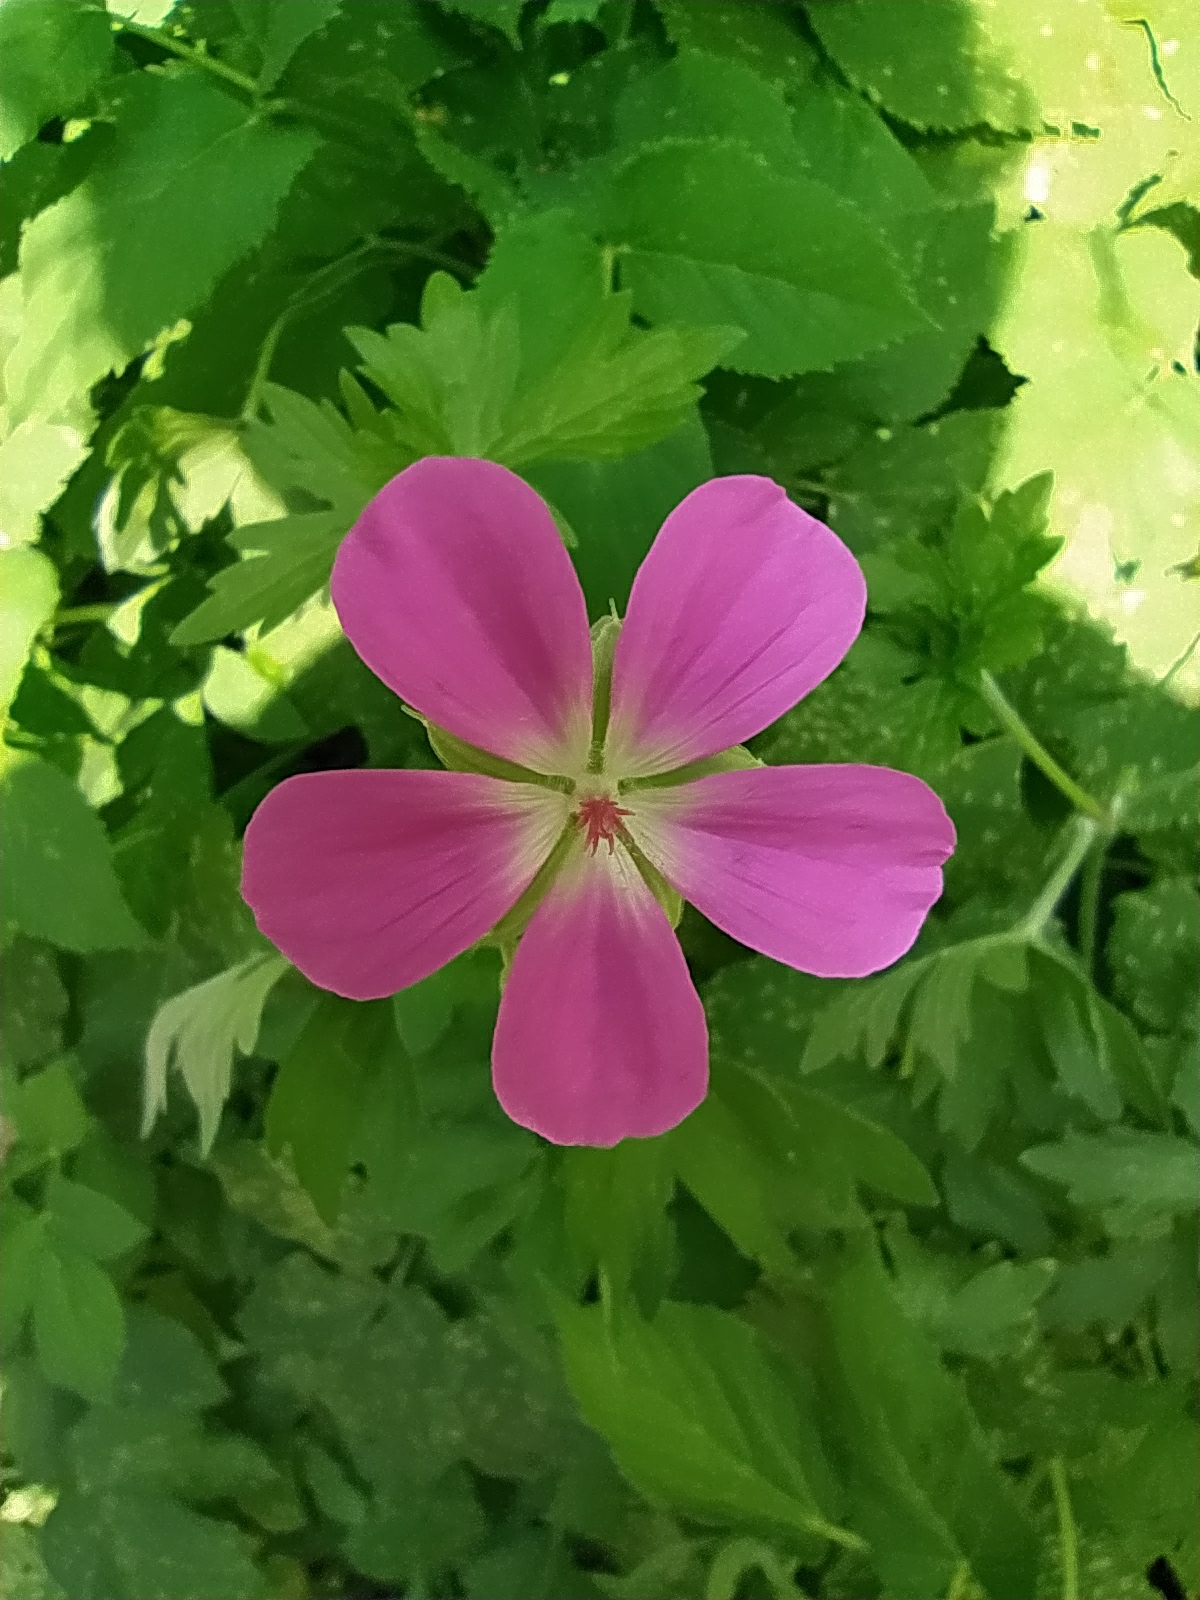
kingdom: Plantae
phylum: Tracheophyta
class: Magnoliopsida
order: Geraniales
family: Geraniaceae
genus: Geranium
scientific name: Geranium palustre
